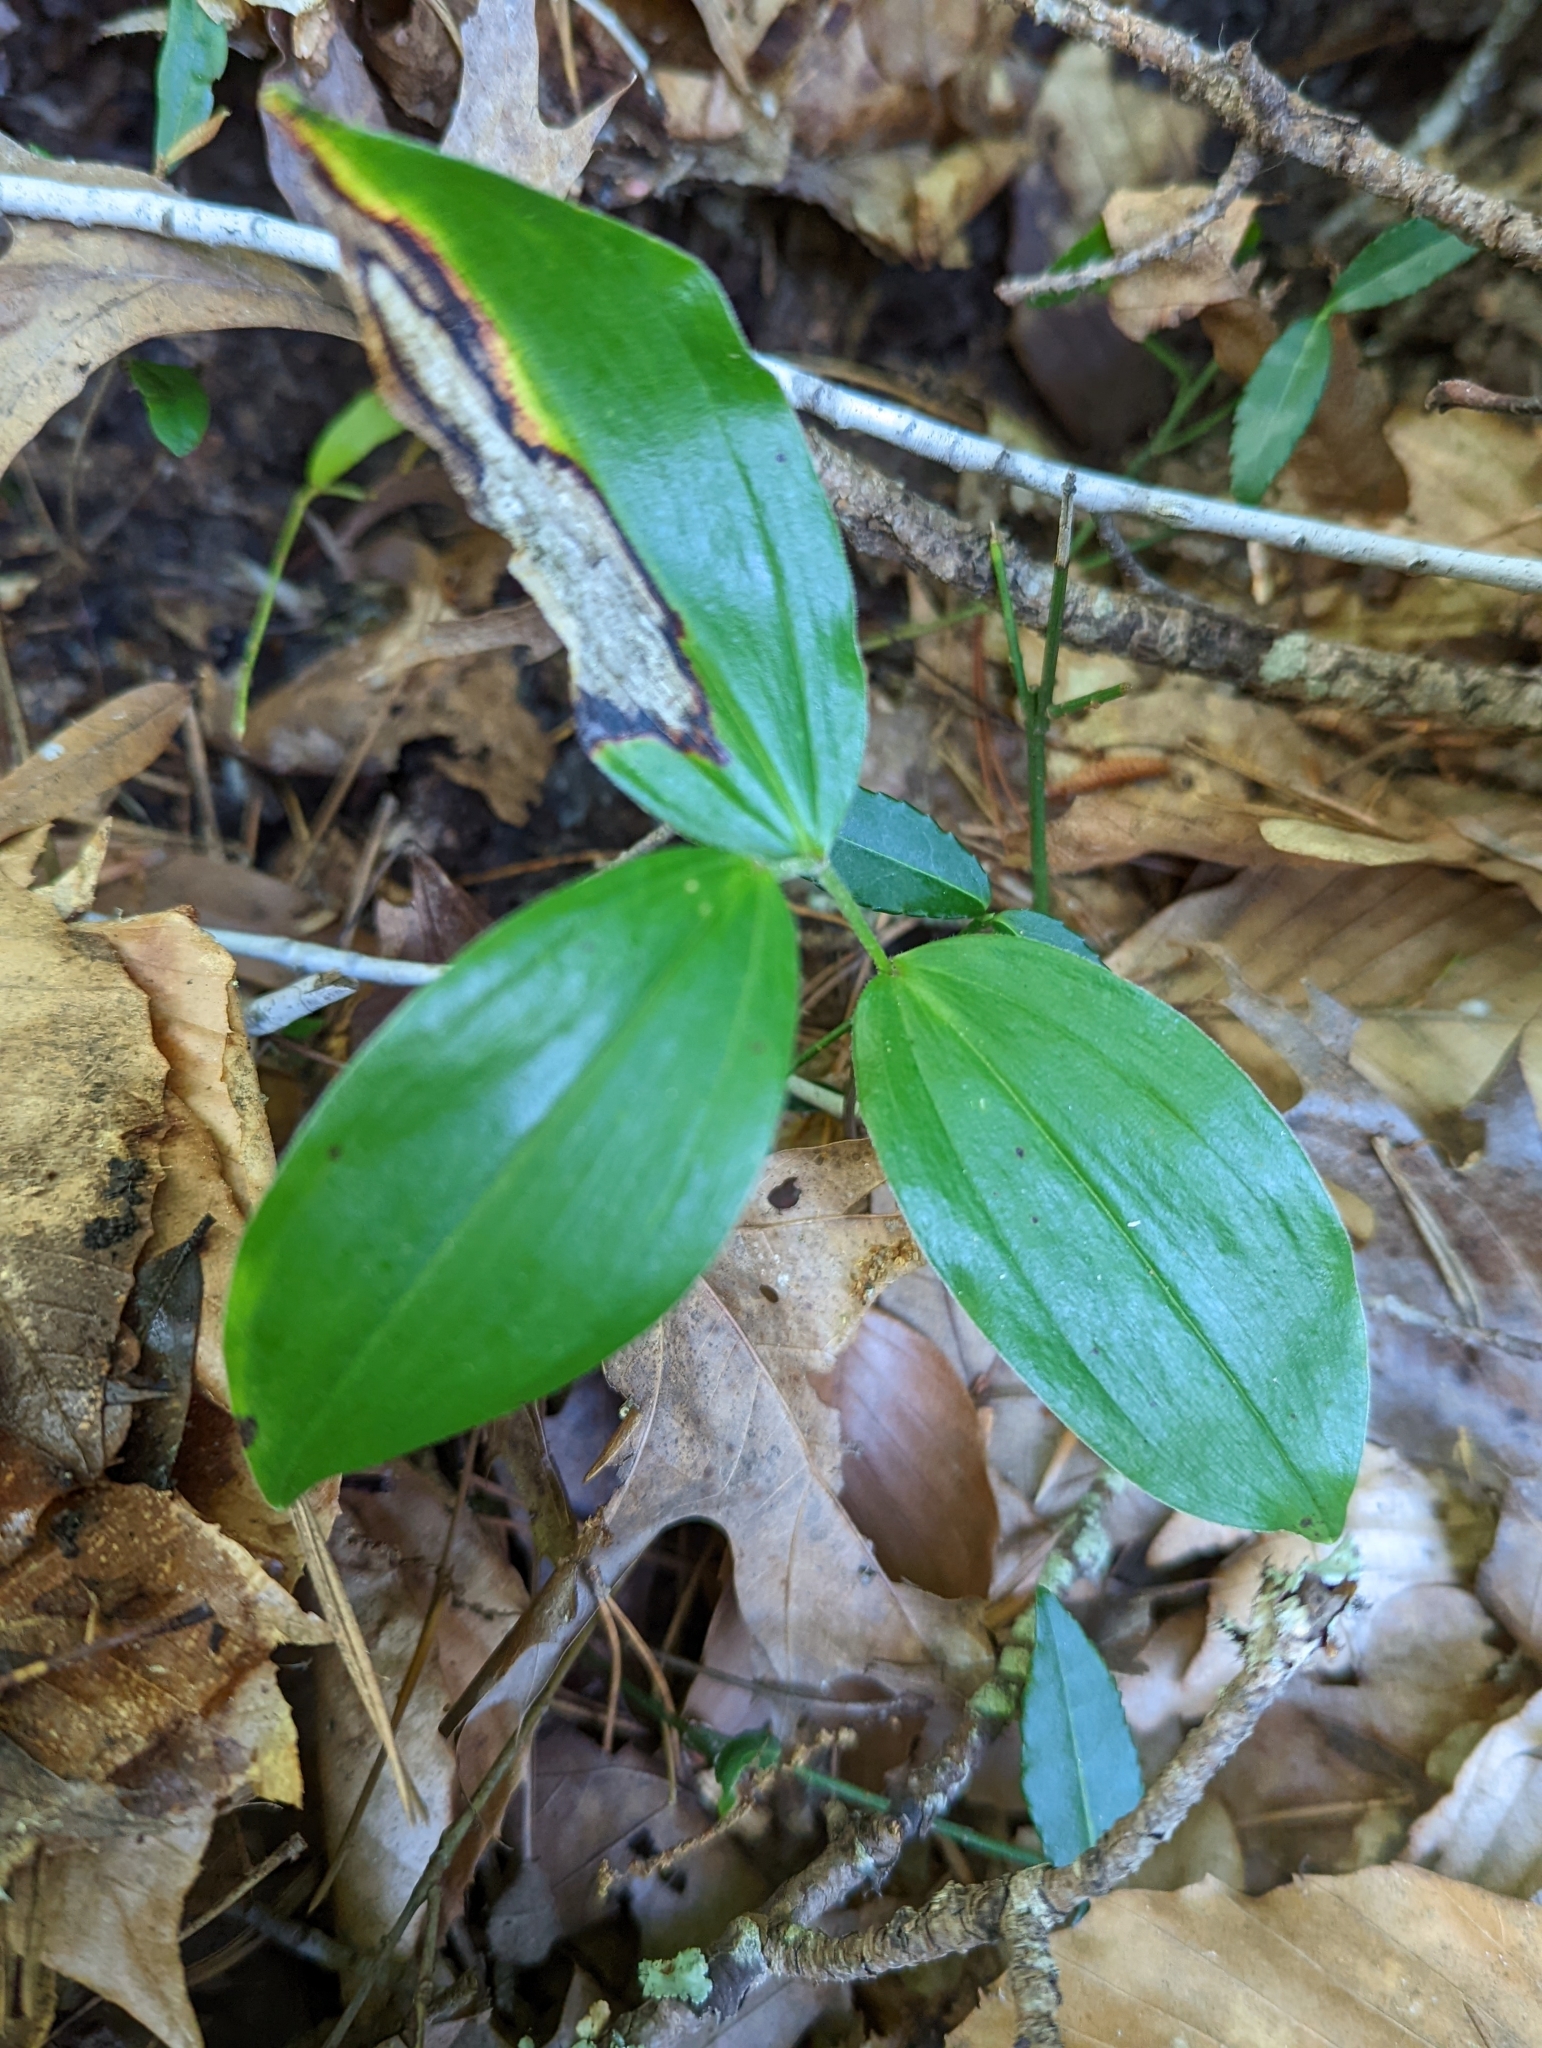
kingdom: Plantae
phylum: Tracheophyta
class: Liliopsida
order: Asparagales
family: Asparagaceae
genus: Maianthemum
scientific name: Maianthemum racemosum
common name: False spikenard
